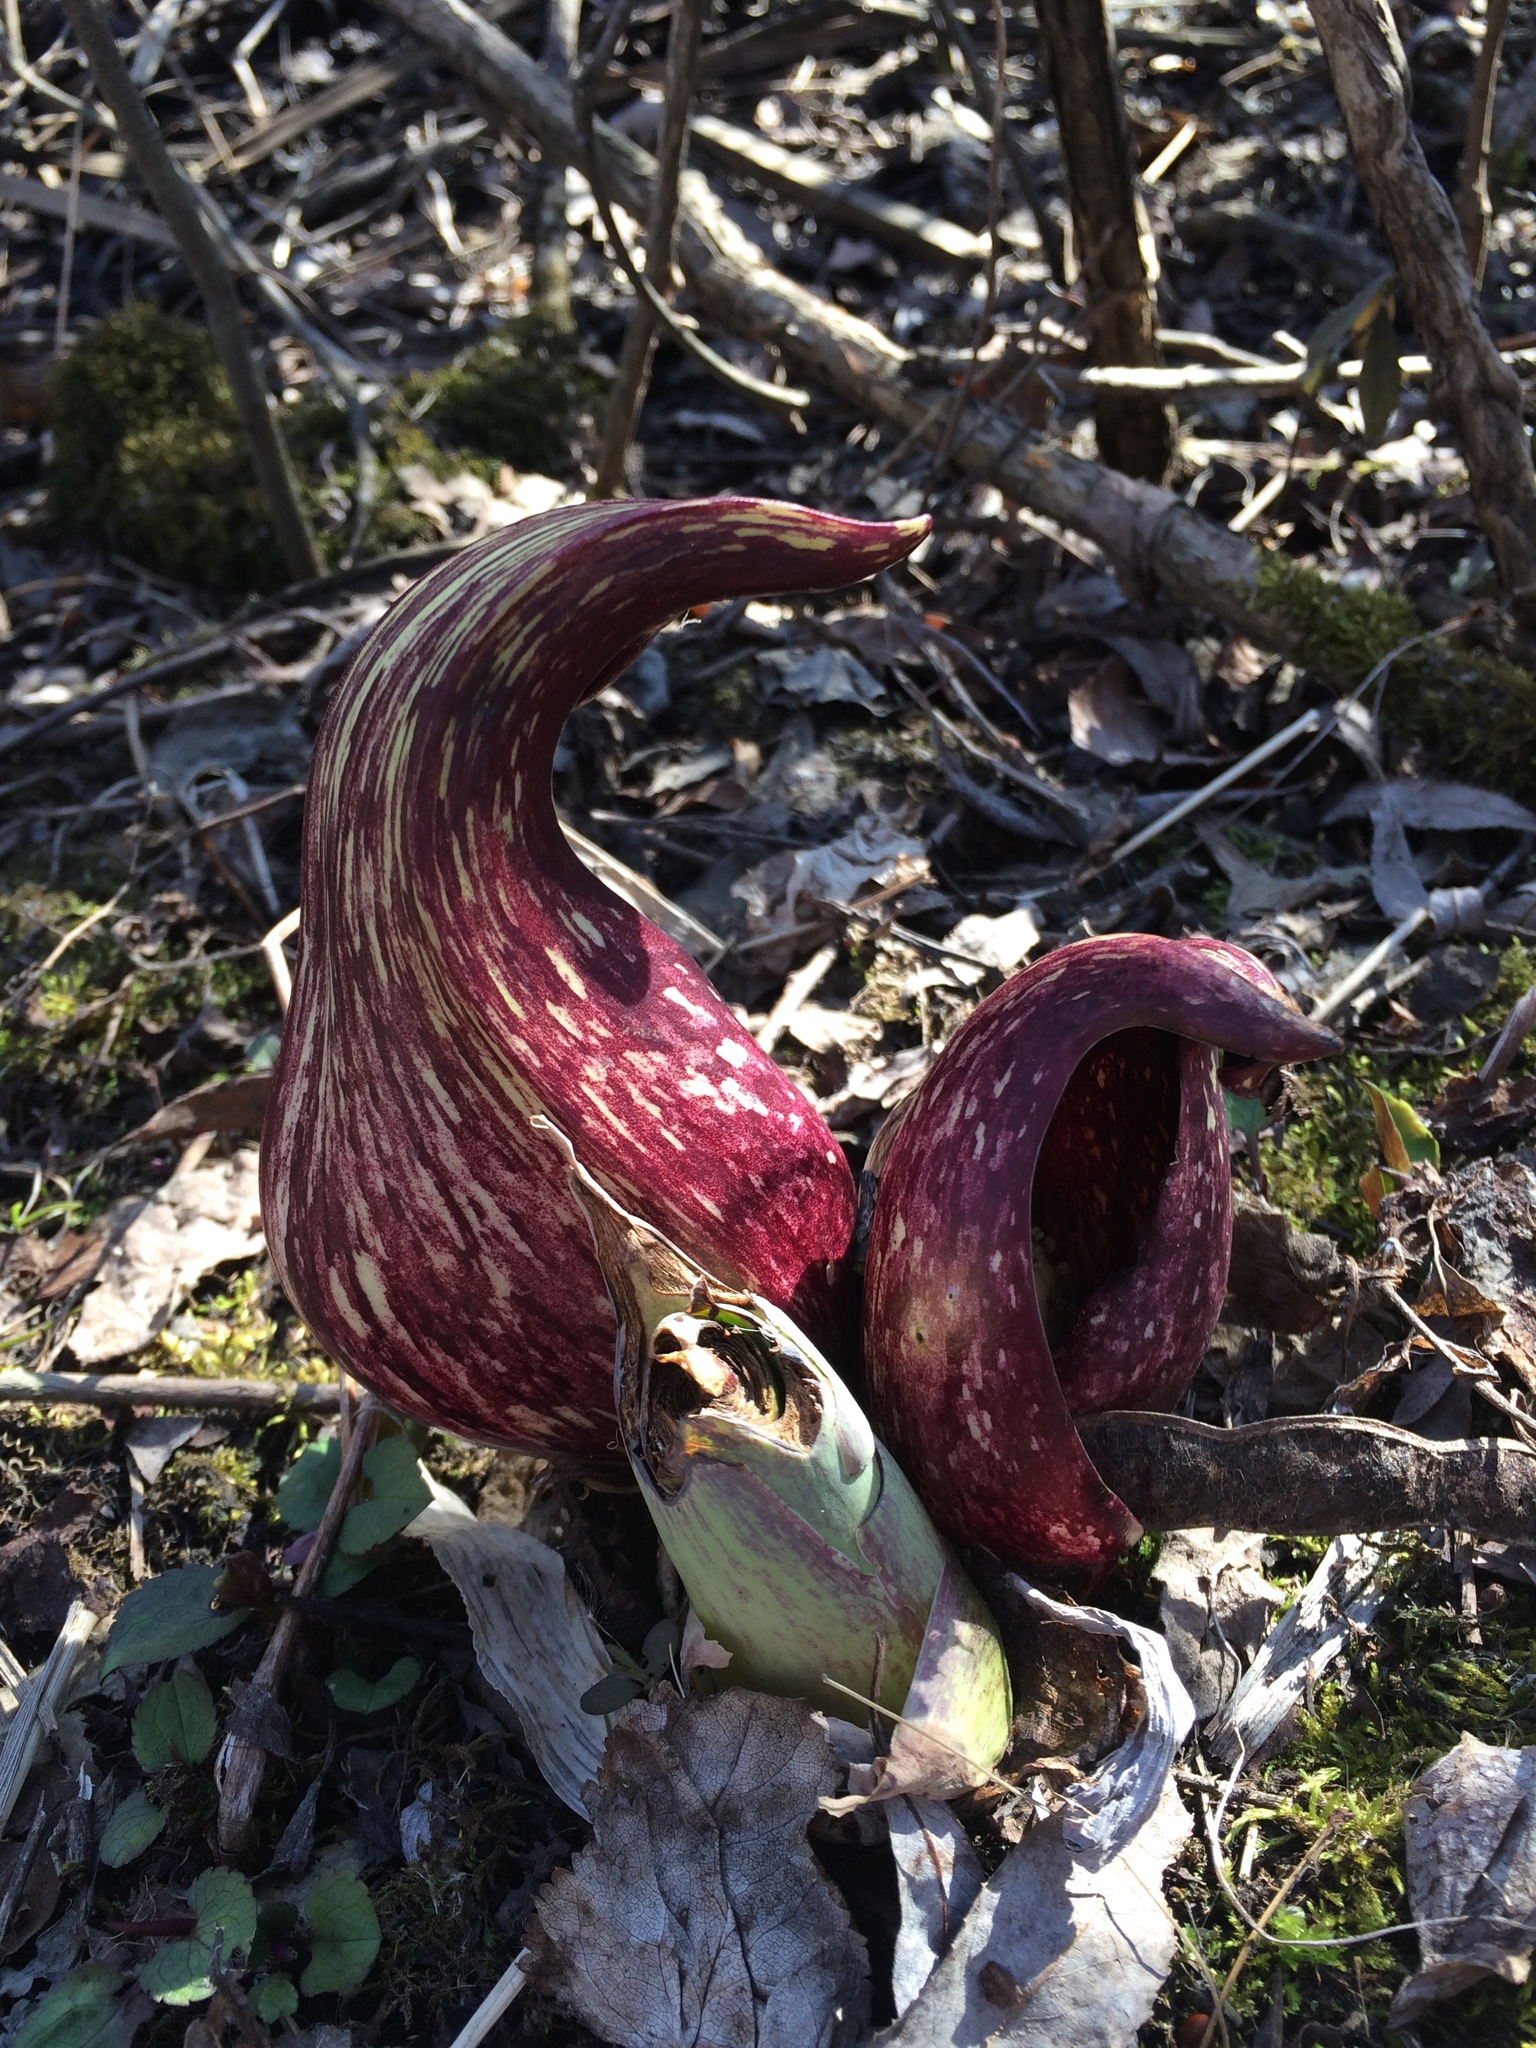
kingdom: Plantae
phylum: Tracheophyta
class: Liliopsida
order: Alismatales
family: Araceae
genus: Symplocarpus
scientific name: Symplocarpus foetidus
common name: Eastern skunk cabbage
